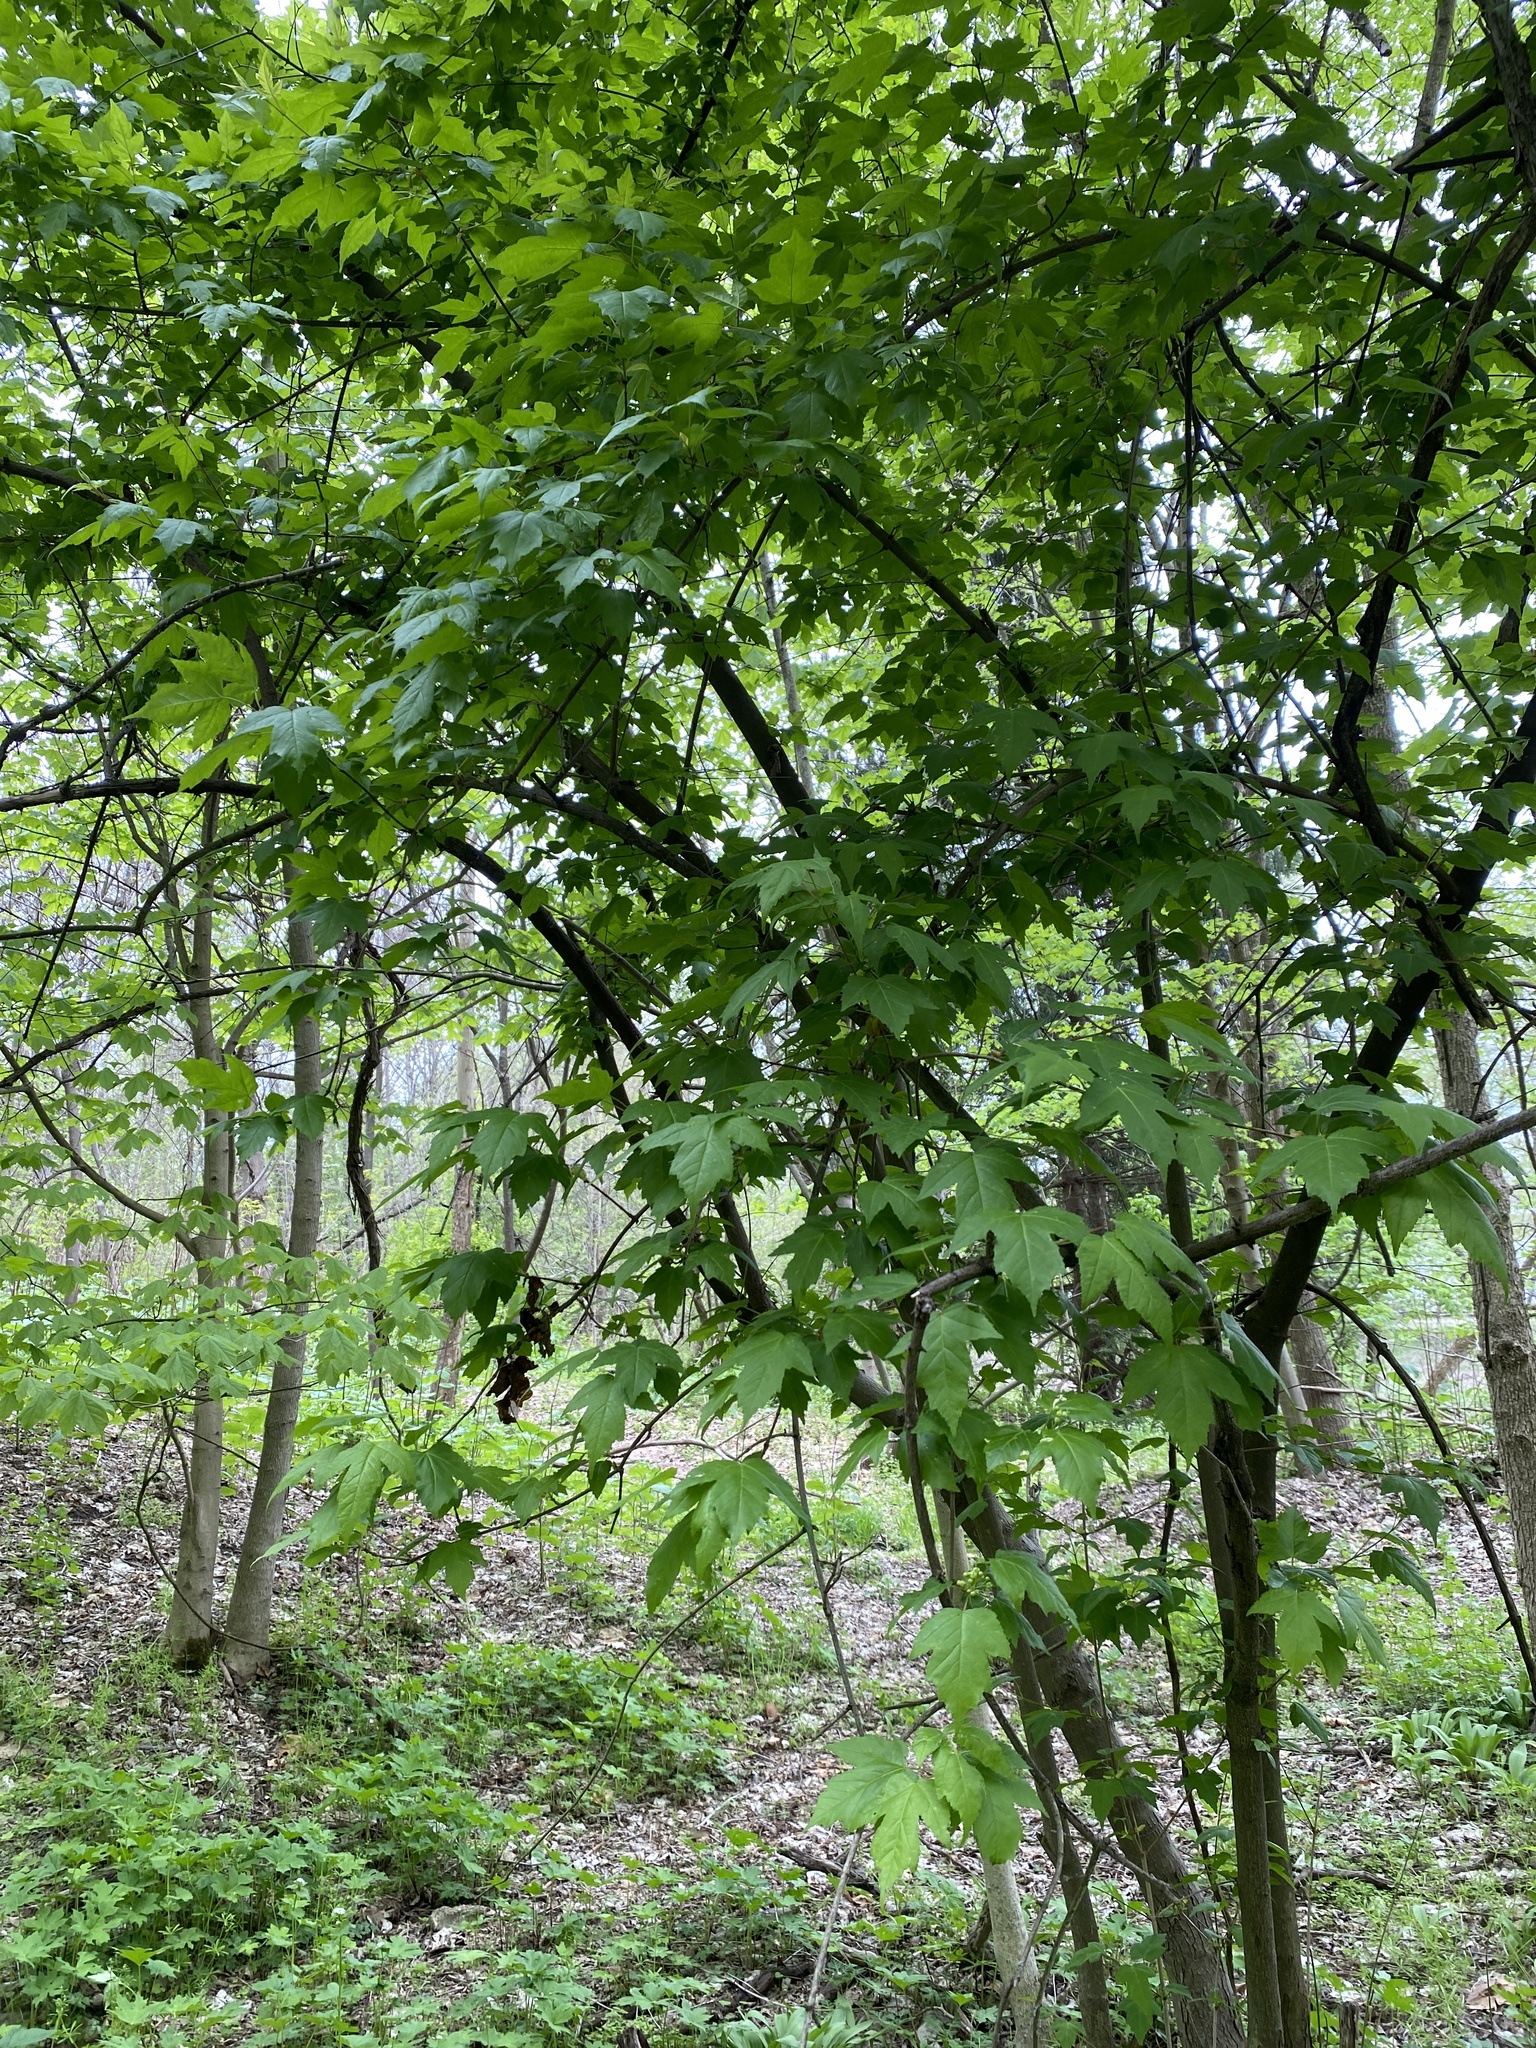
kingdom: Plantae
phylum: Tracheophyta
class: Magnoliopsida
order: Sapindales
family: Sapindaceae
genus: Acer
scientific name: Acer tataricum
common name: Tartar maple
